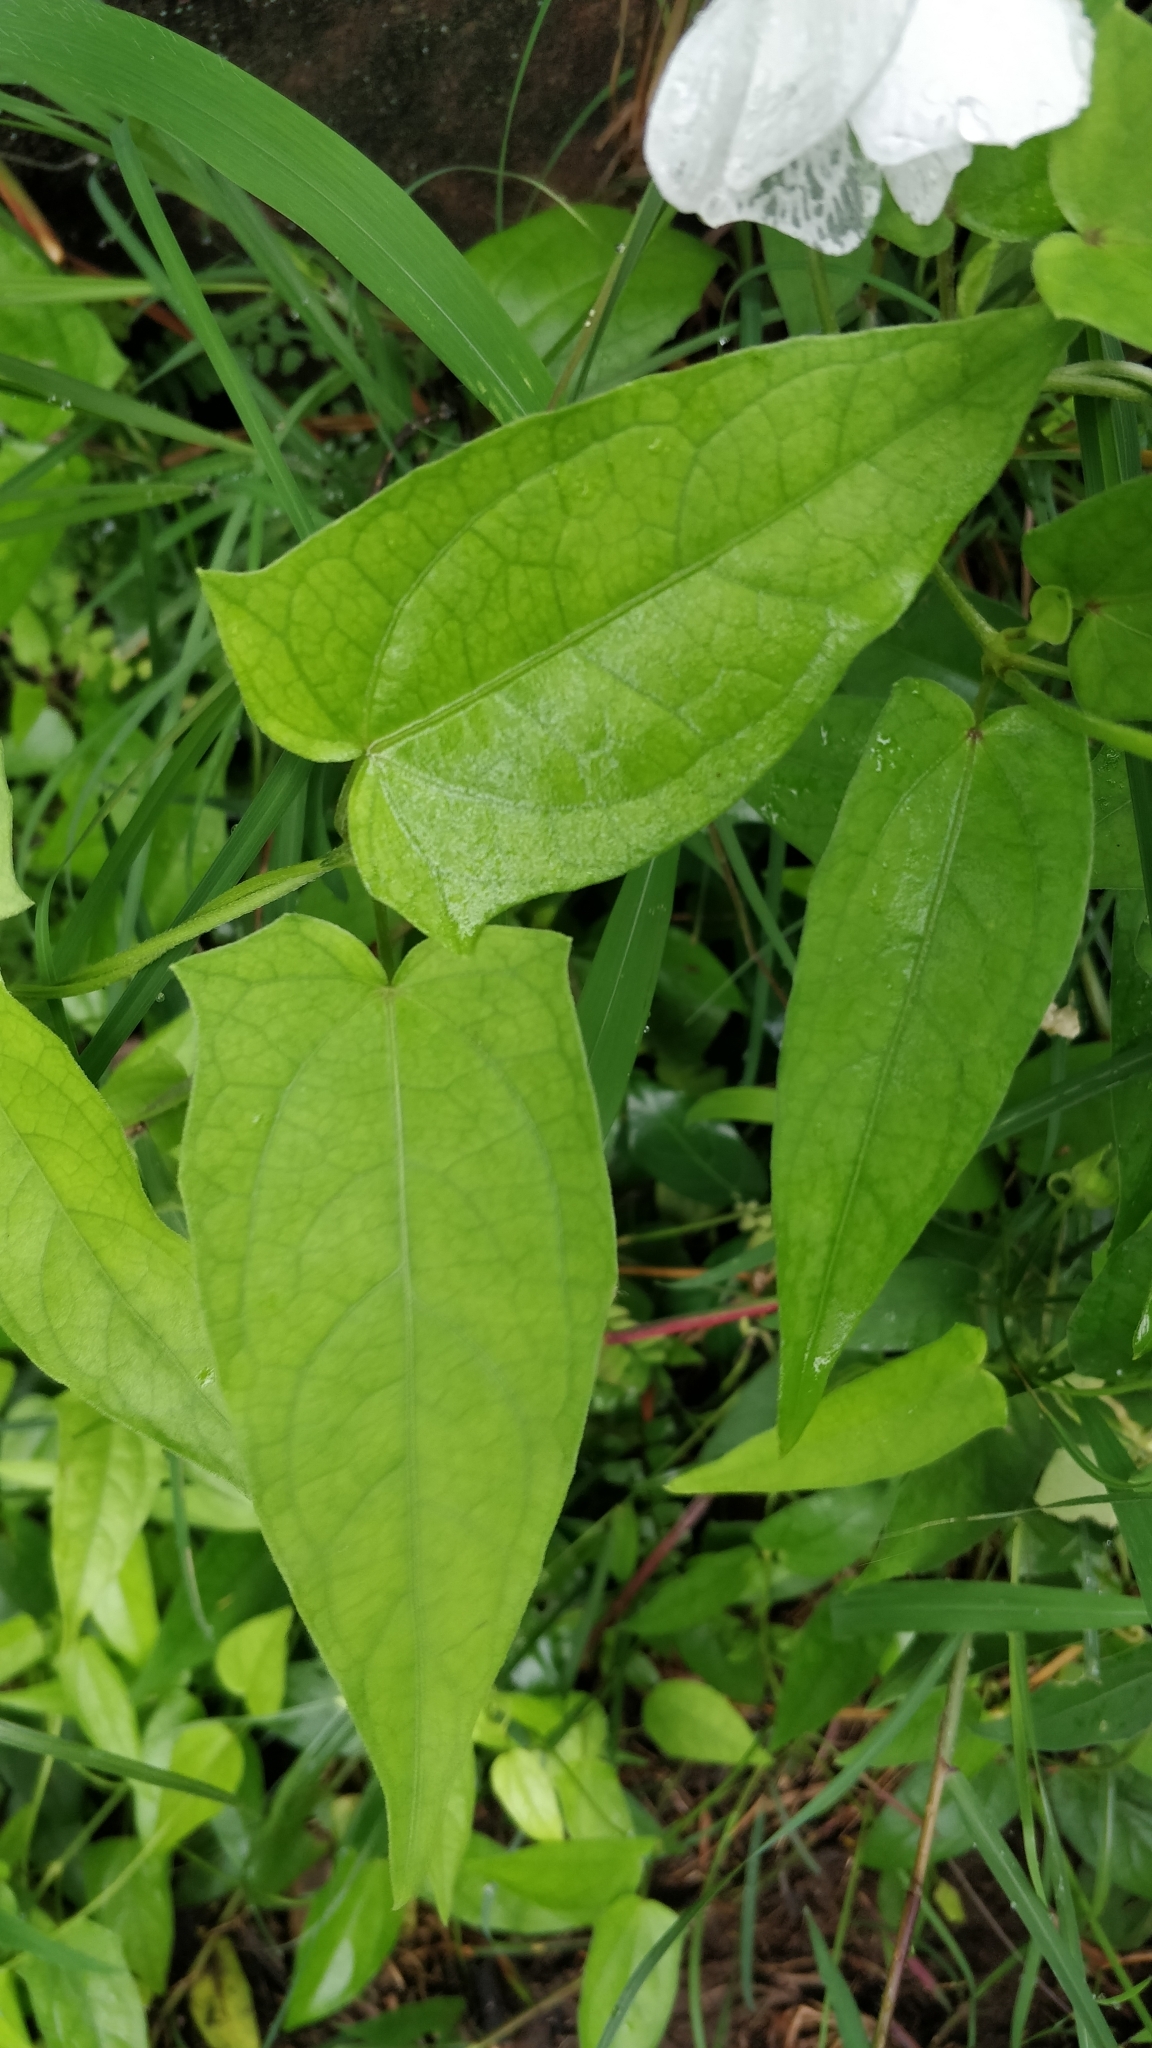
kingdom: Plantae
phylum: Tracheophyta
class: Magnoliopsida
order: Lamiales
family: Acanthaceae
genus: Thunbergia
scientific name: Thunbergia fragrans
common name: Whitelady
